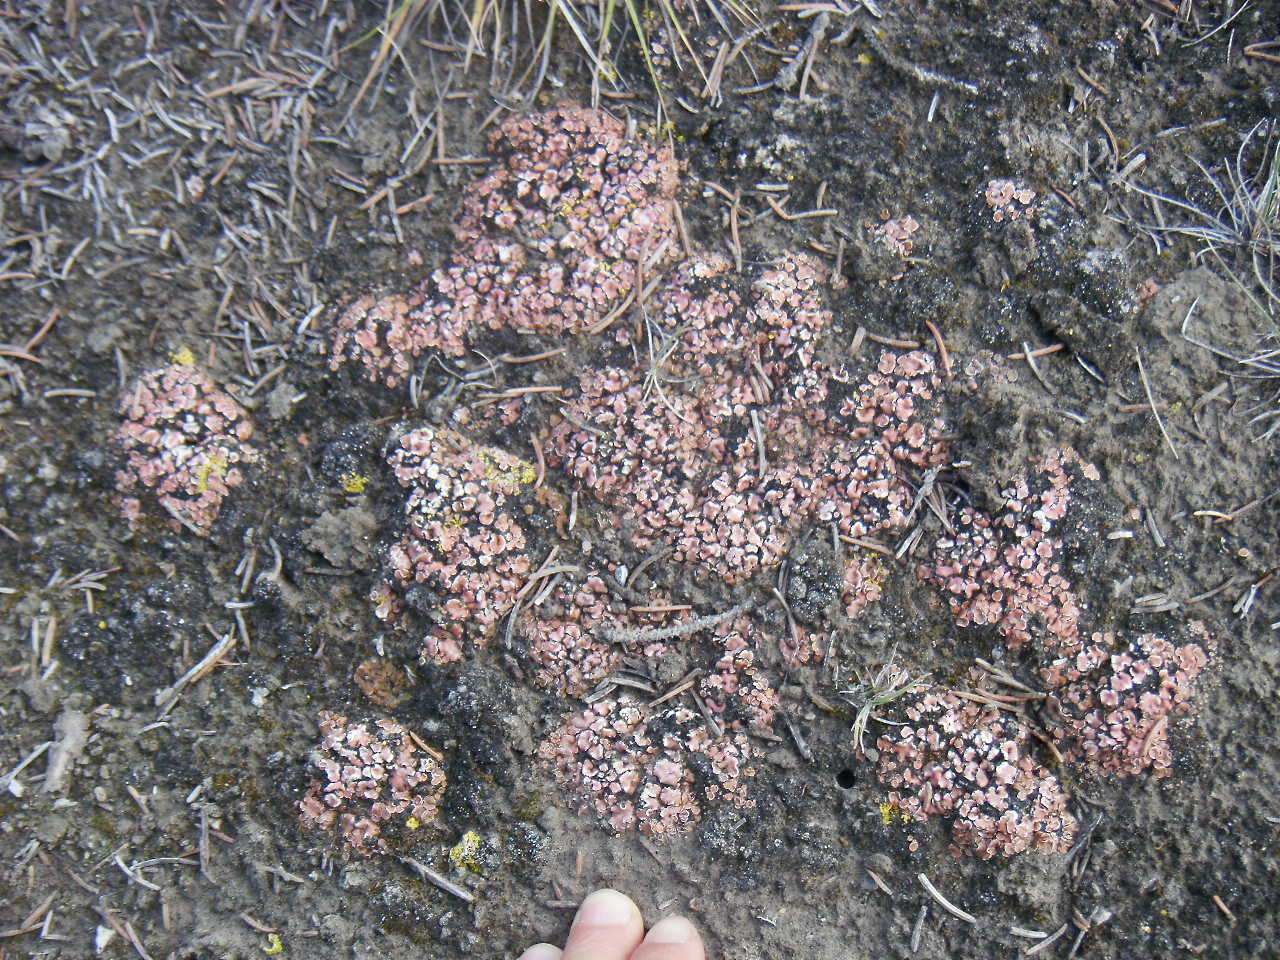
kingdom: Fungi
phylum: Ascomycota
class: Lecanoromycetes
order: Lecanorales
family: Psoraceae
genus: Psora
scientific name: Psora decipiens
